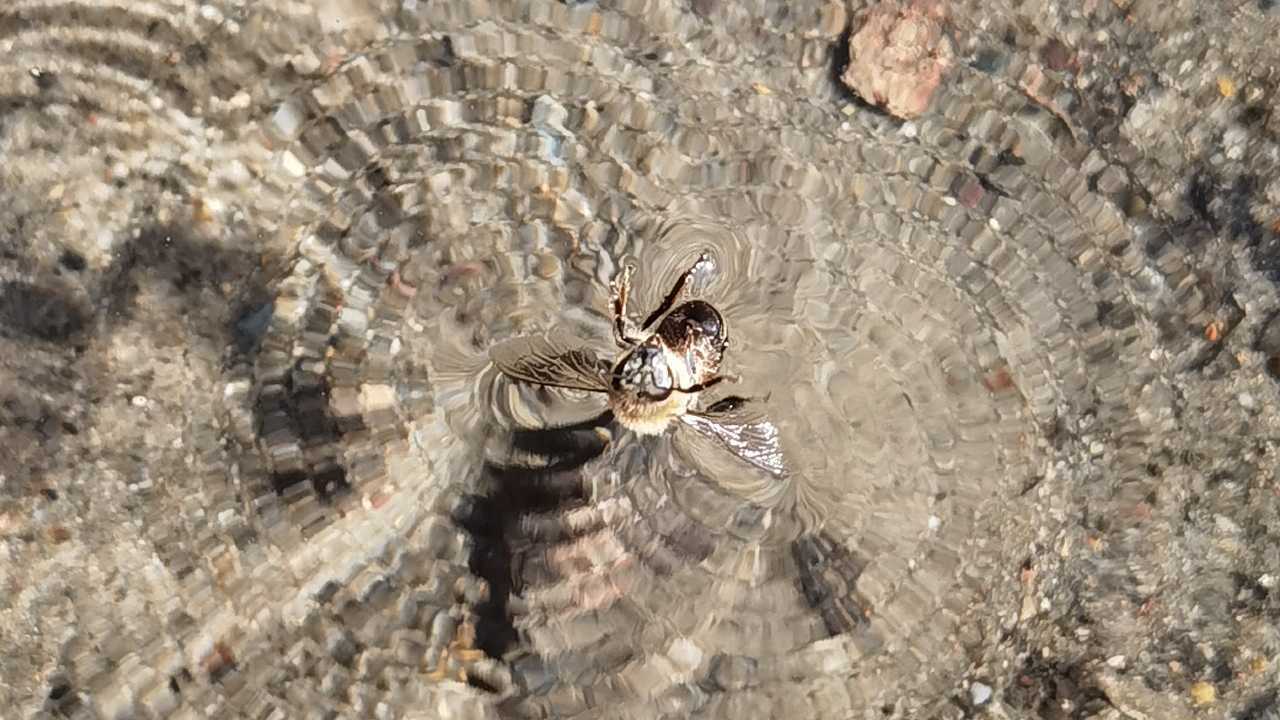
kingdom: Animalia
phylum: Arthropoda
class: Insecta
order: Hymenoptera
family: Apidae
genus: Apis
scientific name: Apis mellifera
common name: Honey bee
